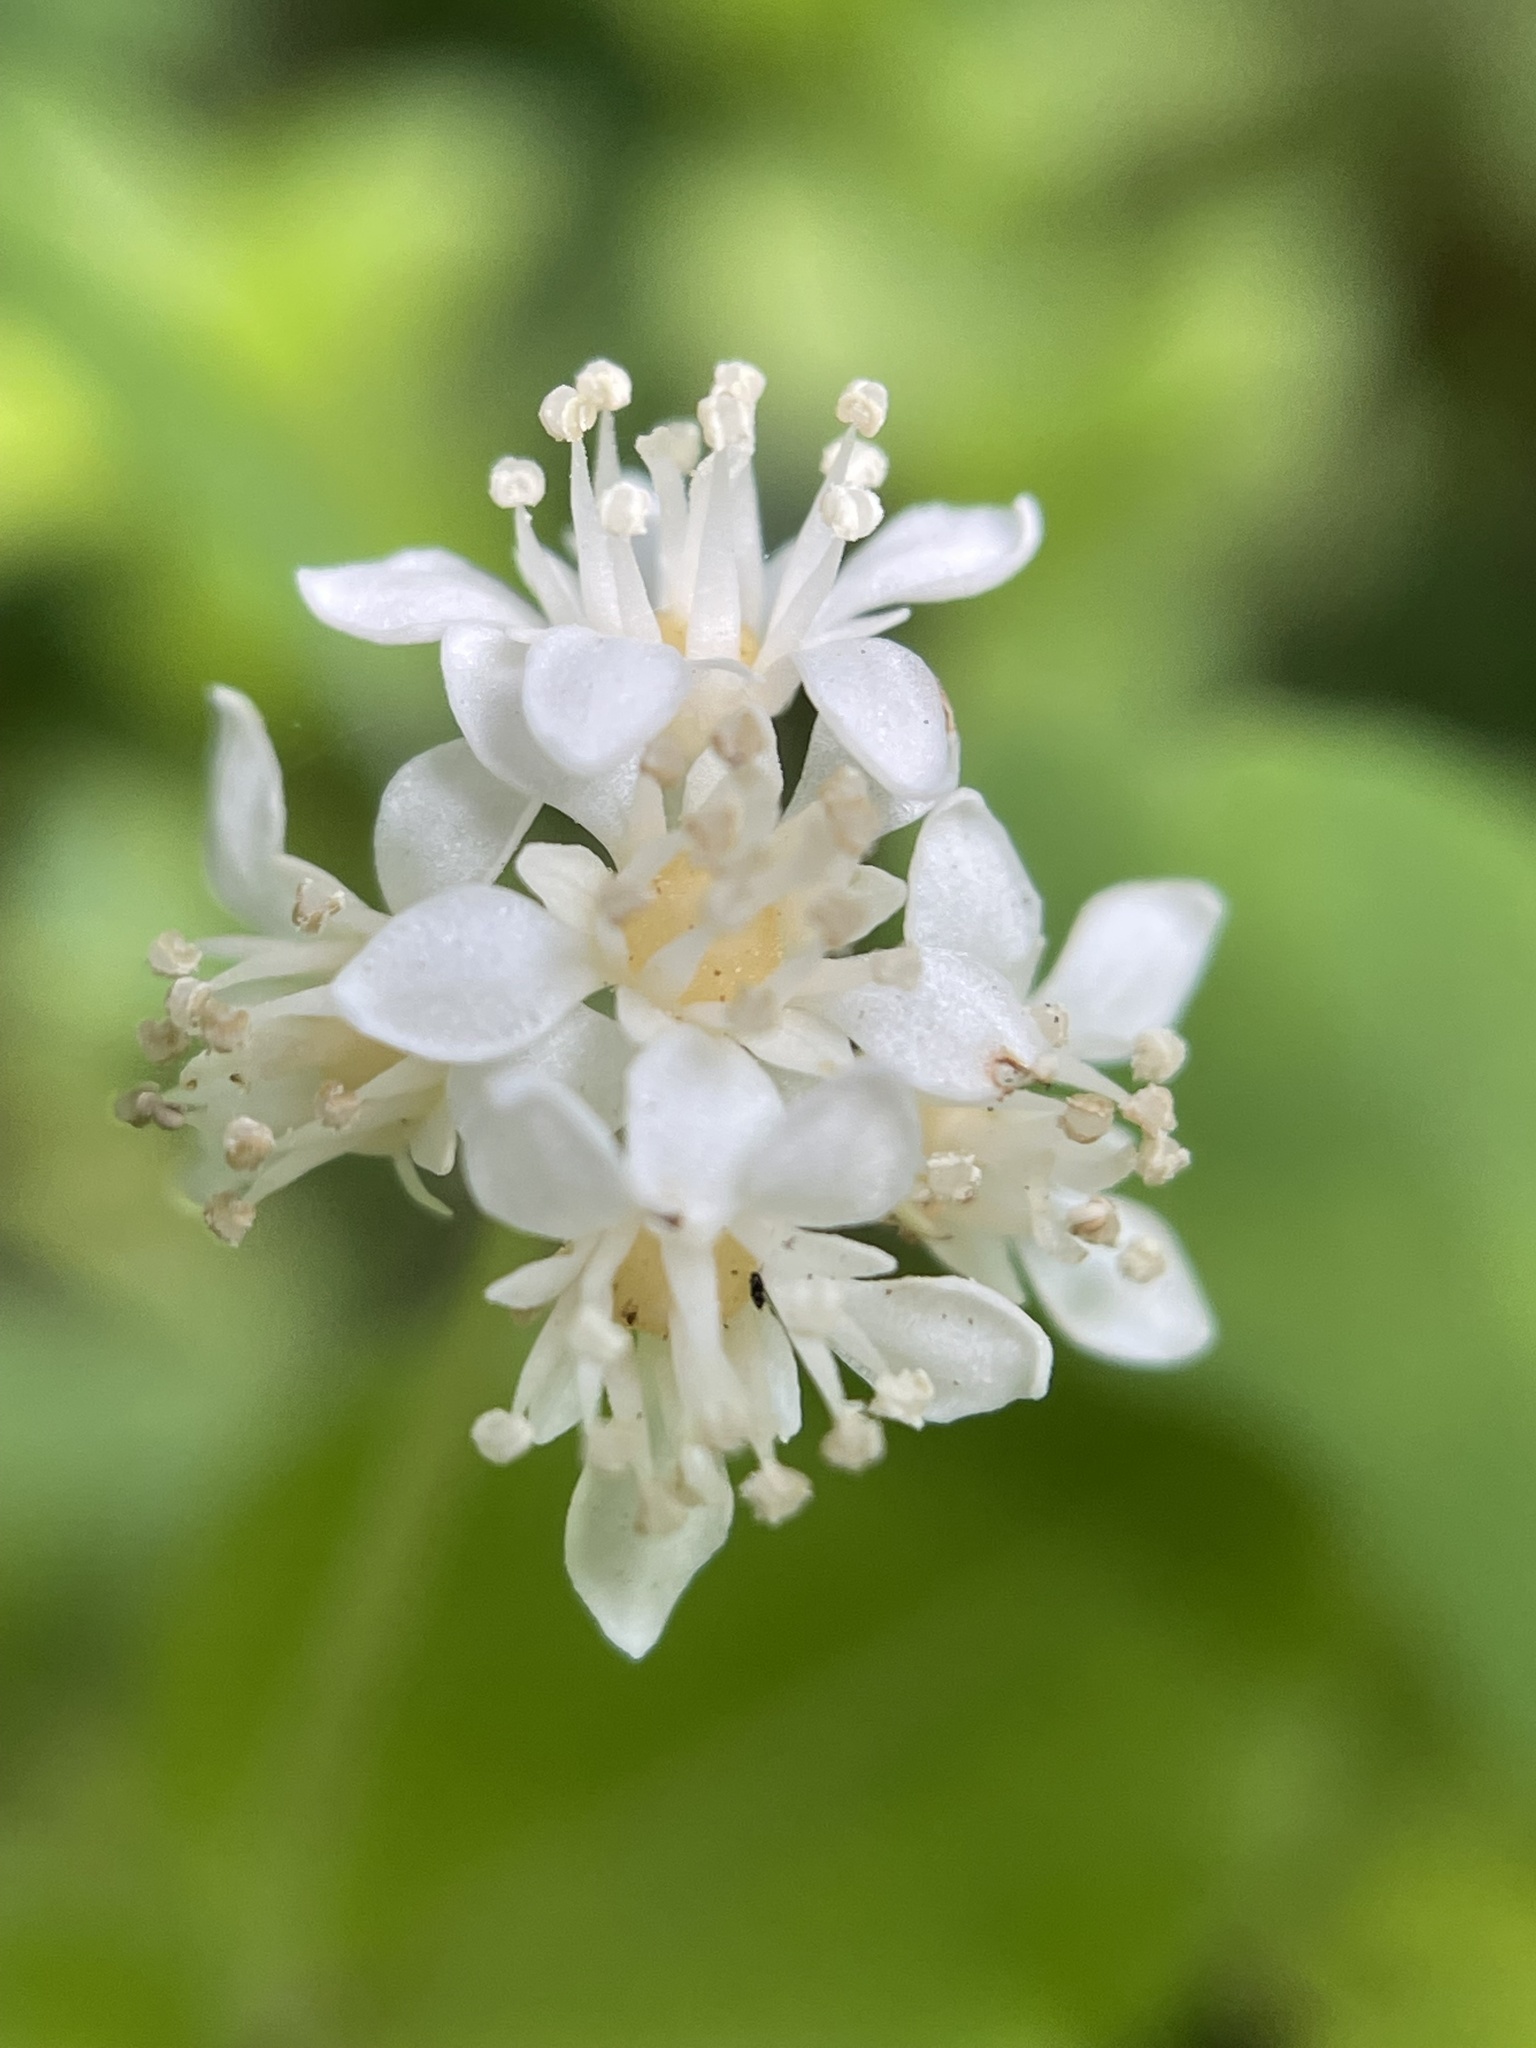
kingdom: Plantae
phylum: Tracheophyta
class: Magnoliopsida
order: Cornales
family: Hydrangeaceae
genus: Whipplea
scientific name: Whipplea modesta
